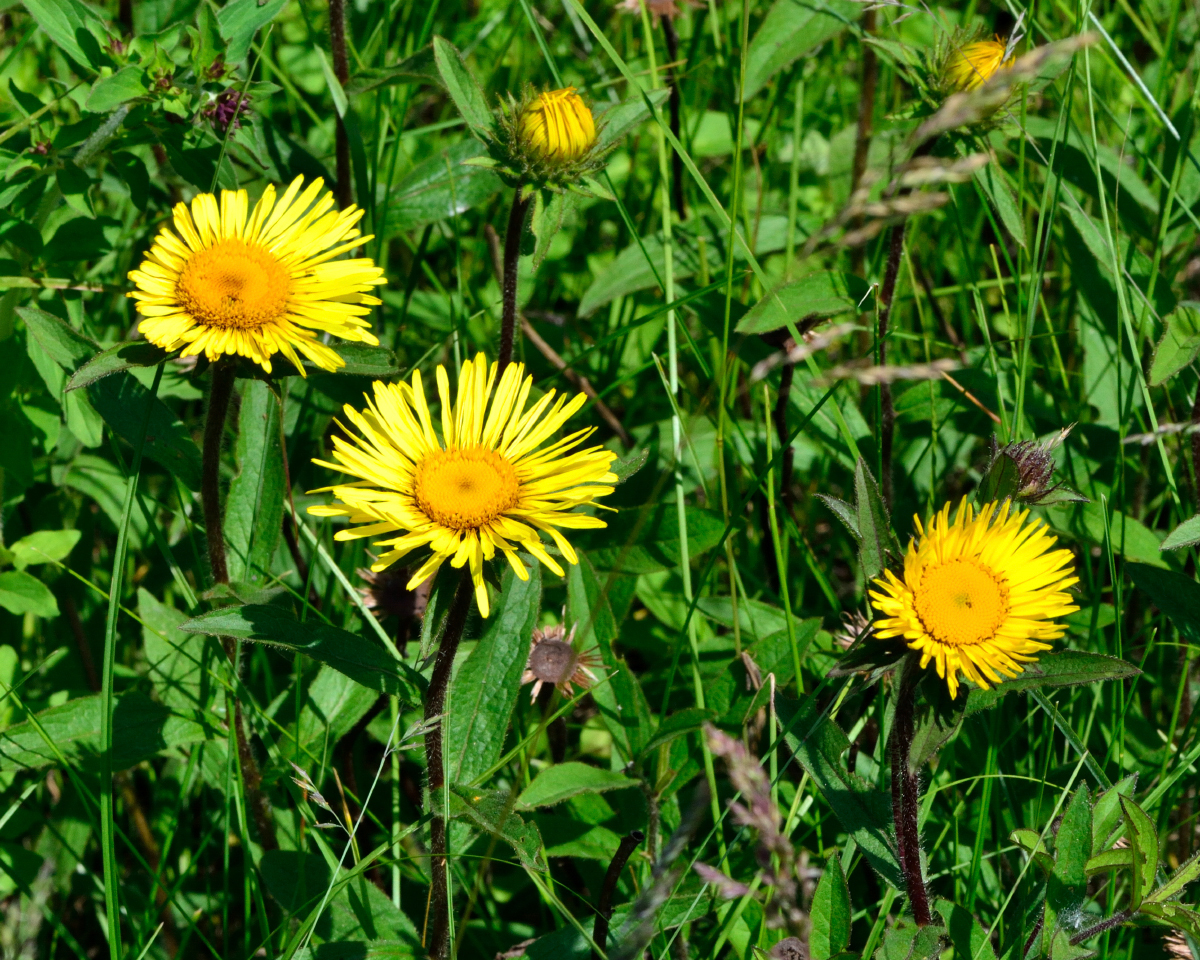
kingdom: Plantae
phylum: Tracheophyta
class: Magnoliopsida
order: Asterales
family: Asteraceae
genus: Pentanema
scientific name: Pentanema hirtum
